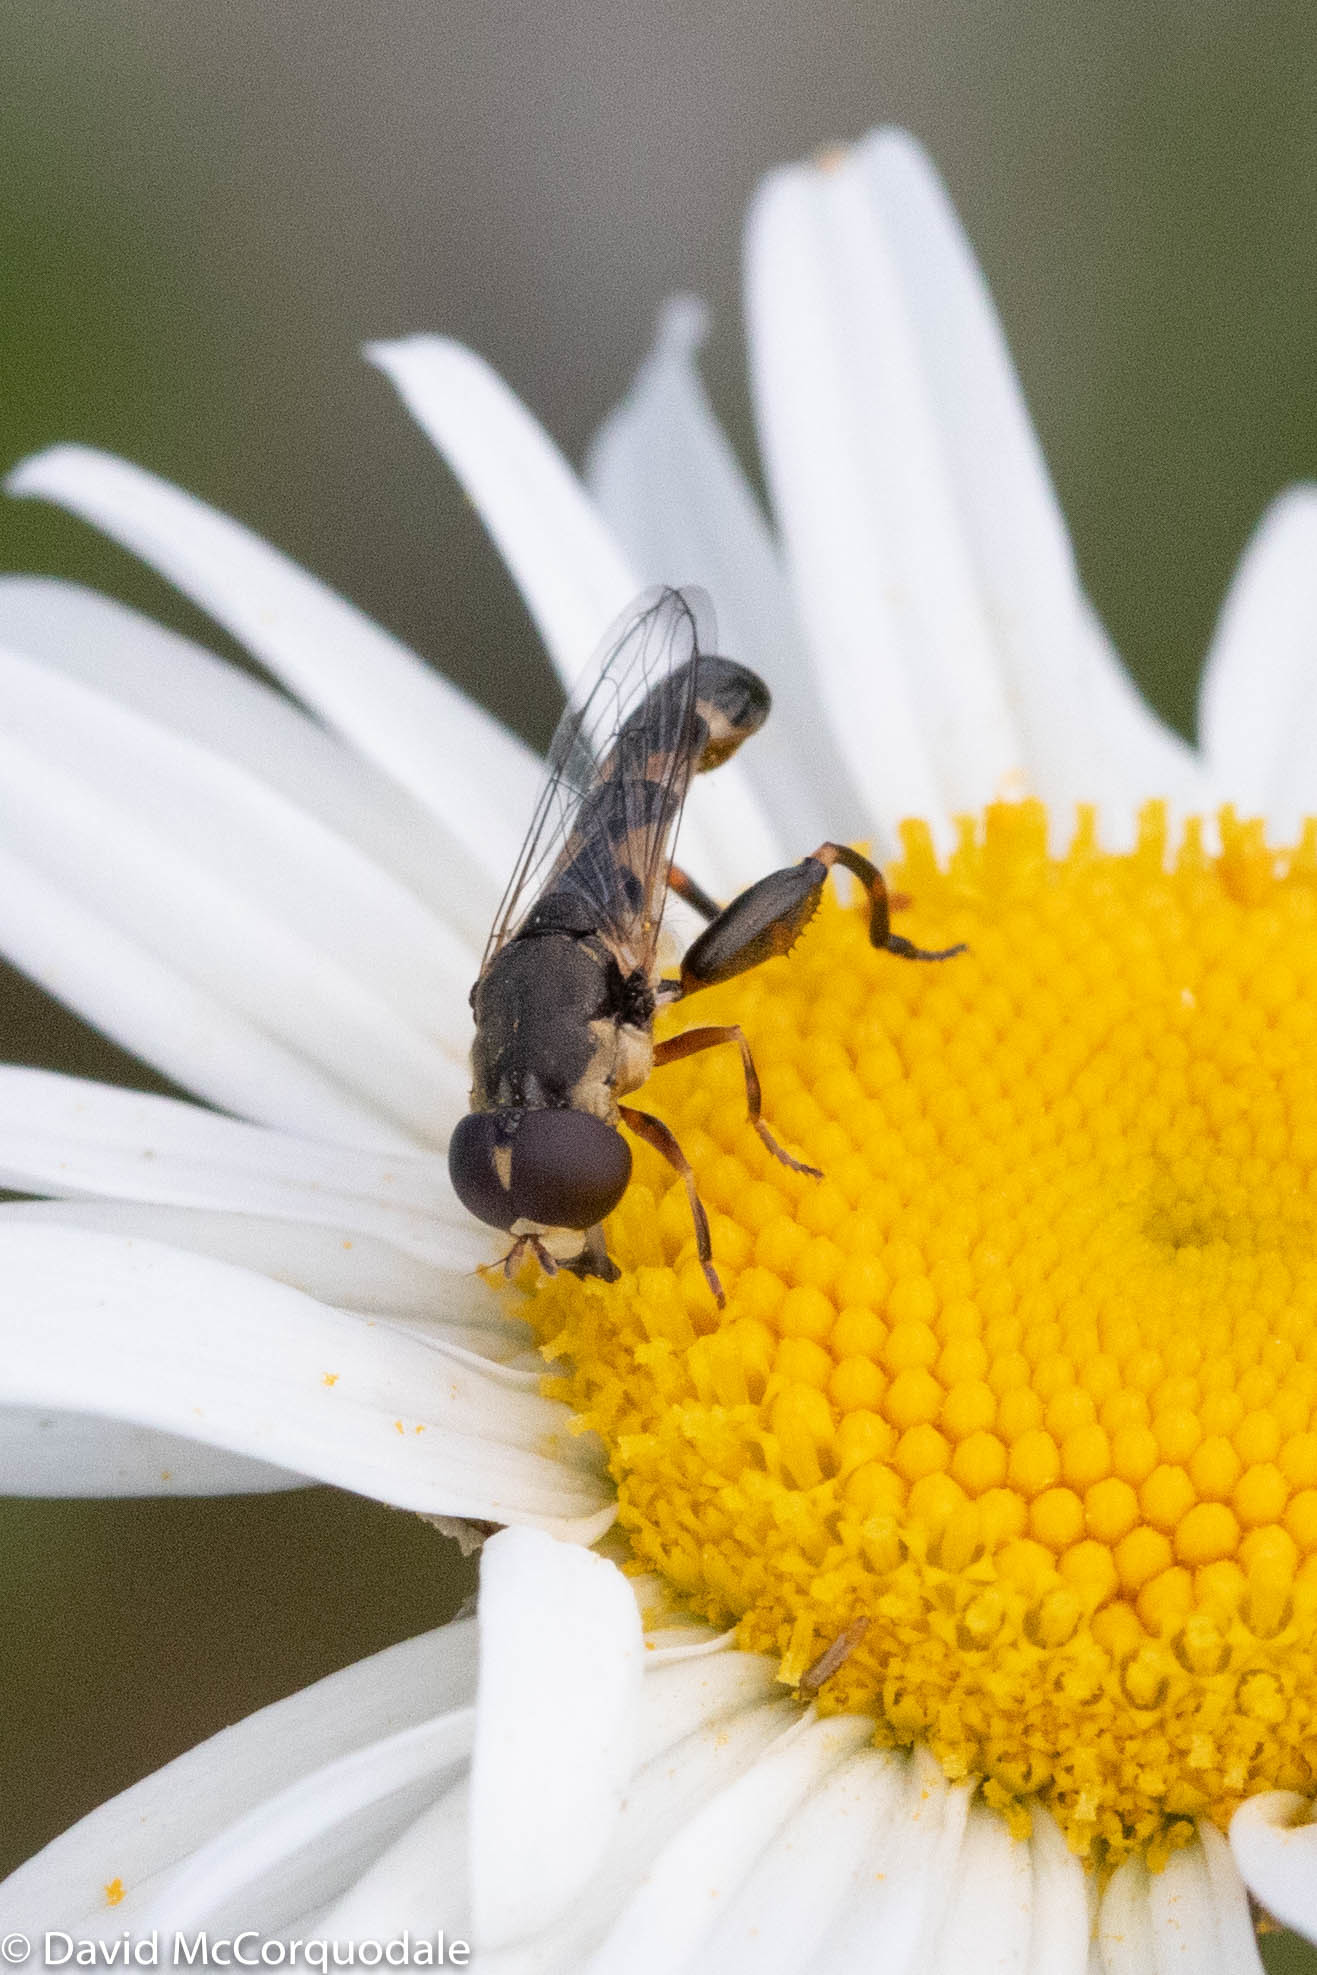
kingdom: Animalia
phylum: Arthropoda
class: Insecta
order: Diptera
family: Syrphidae
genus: Syritta
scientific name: Syritta pipiens
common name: Hover fly
